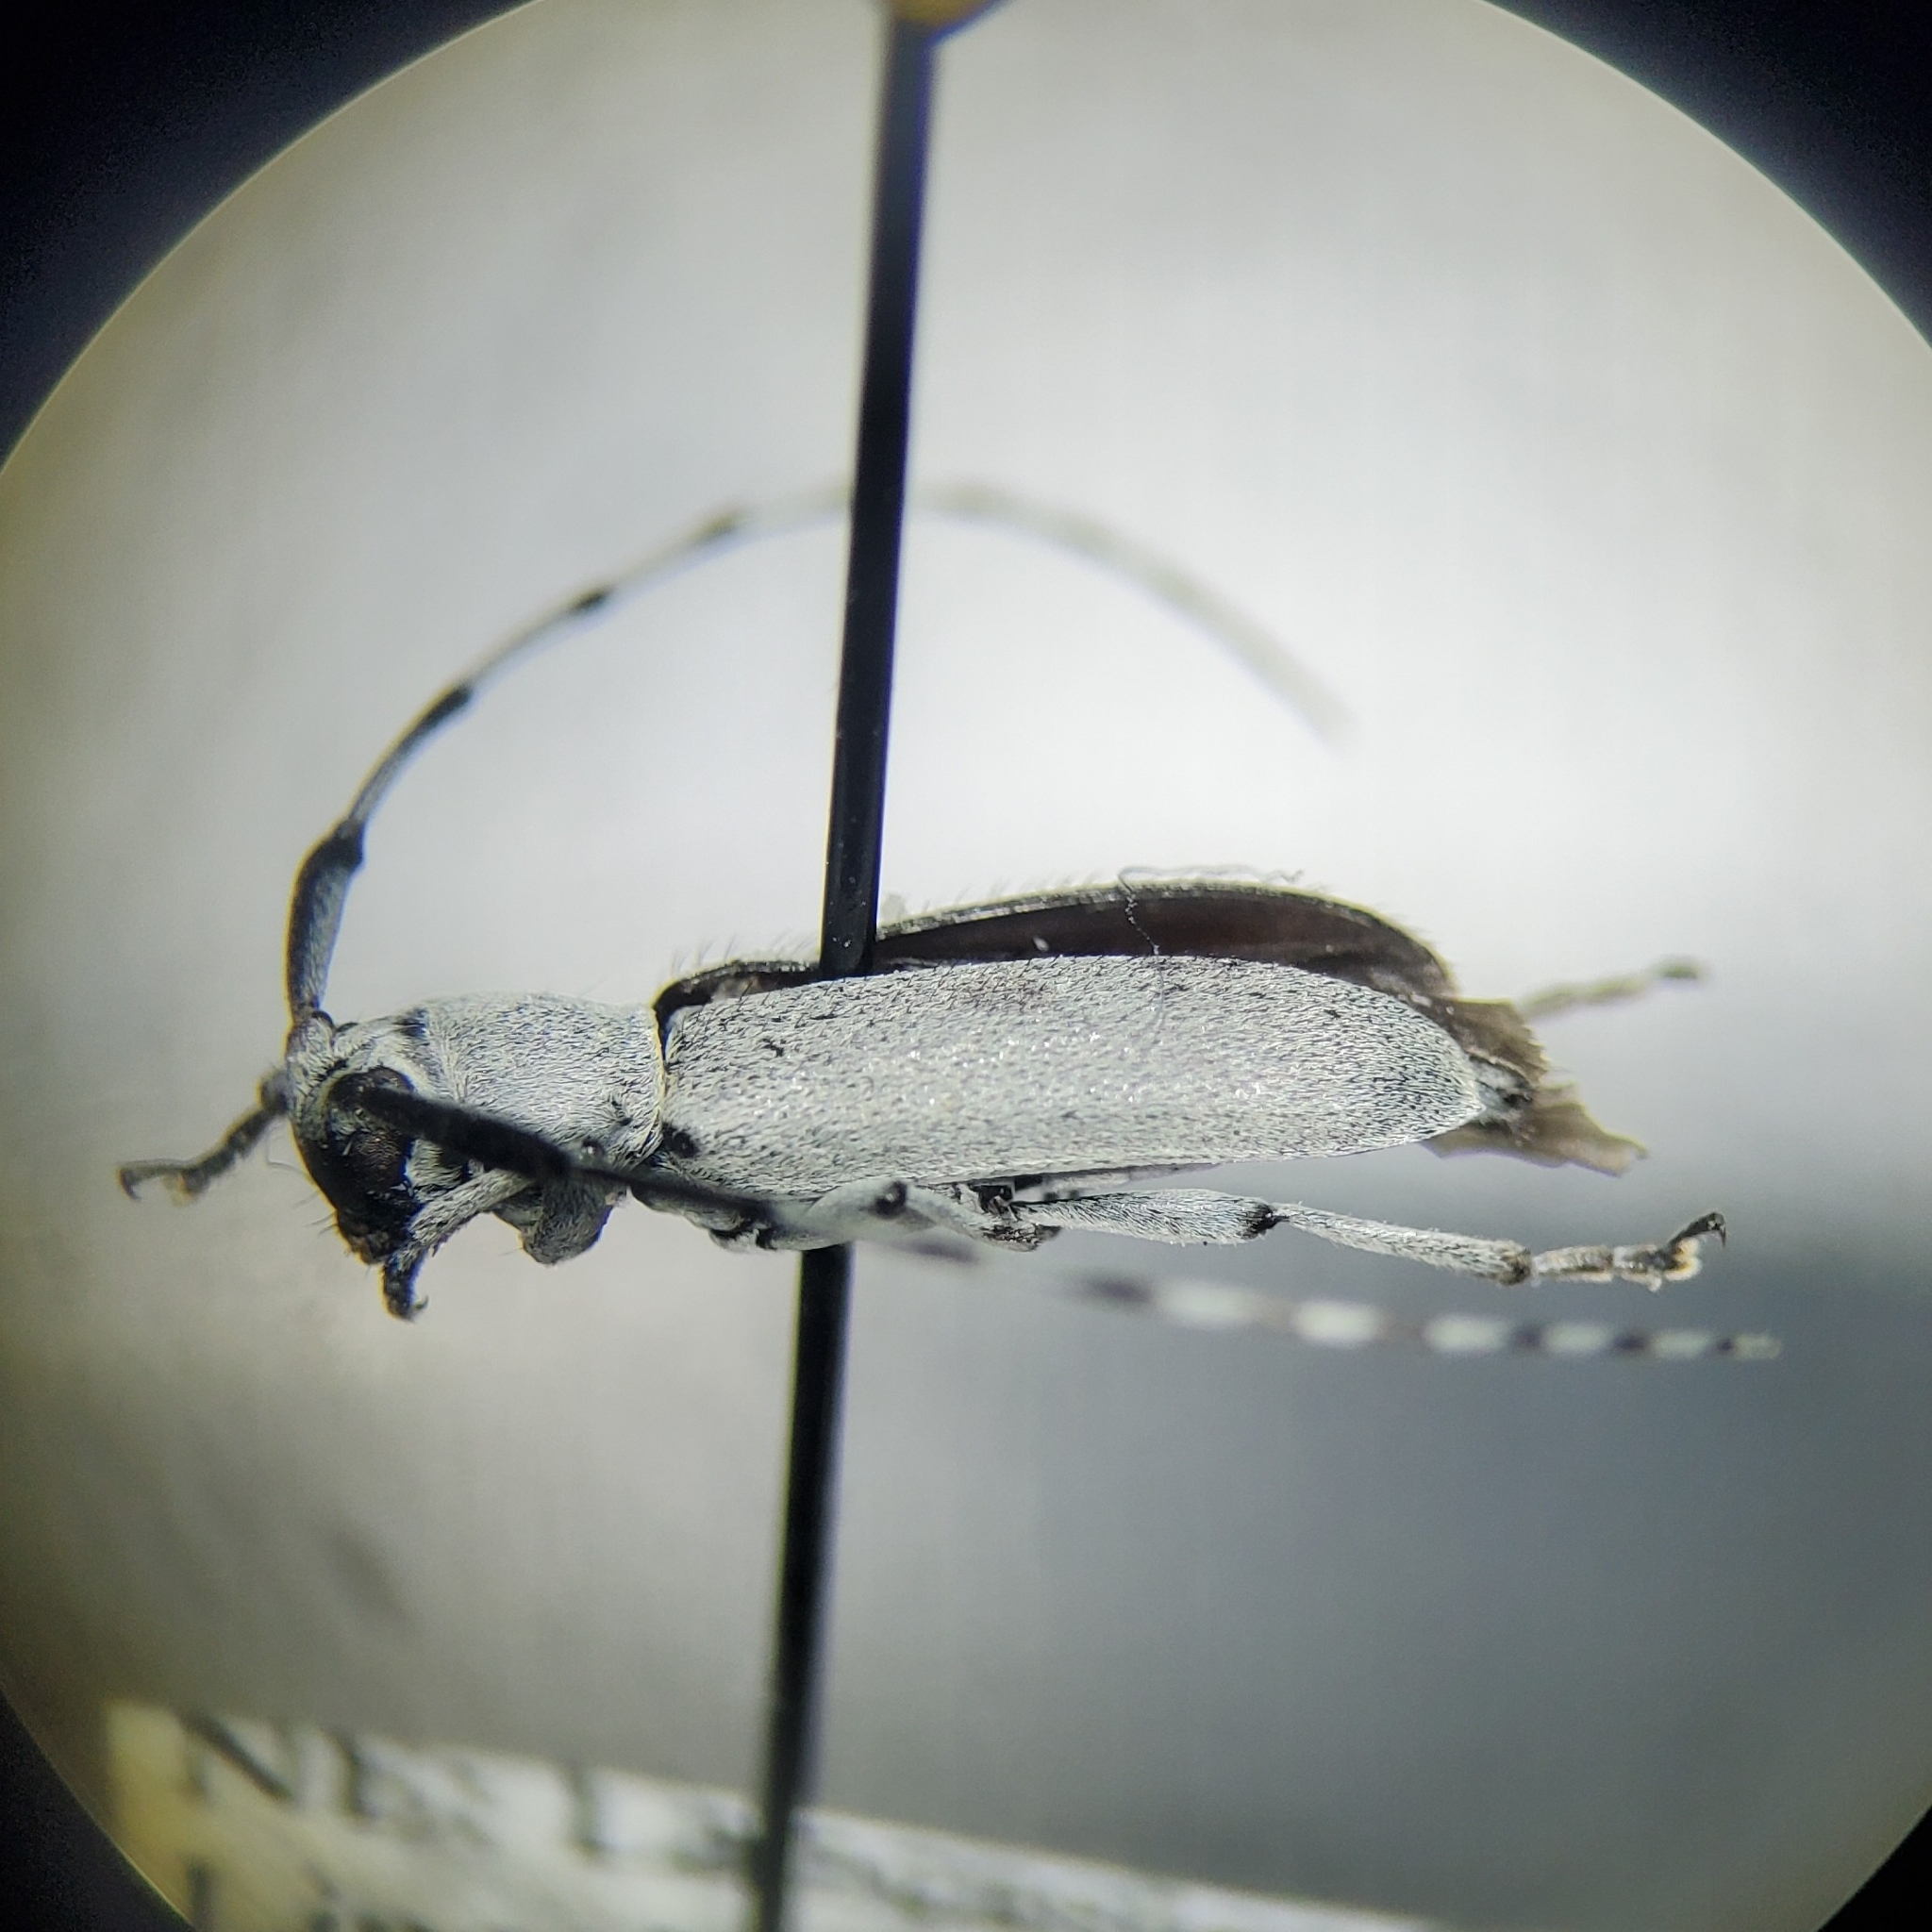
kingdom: Animalia
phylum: Arthropoda
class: Insecta
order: Coleoptera
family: Cerambycidae
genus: Dectes
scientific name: Dectes texanus
